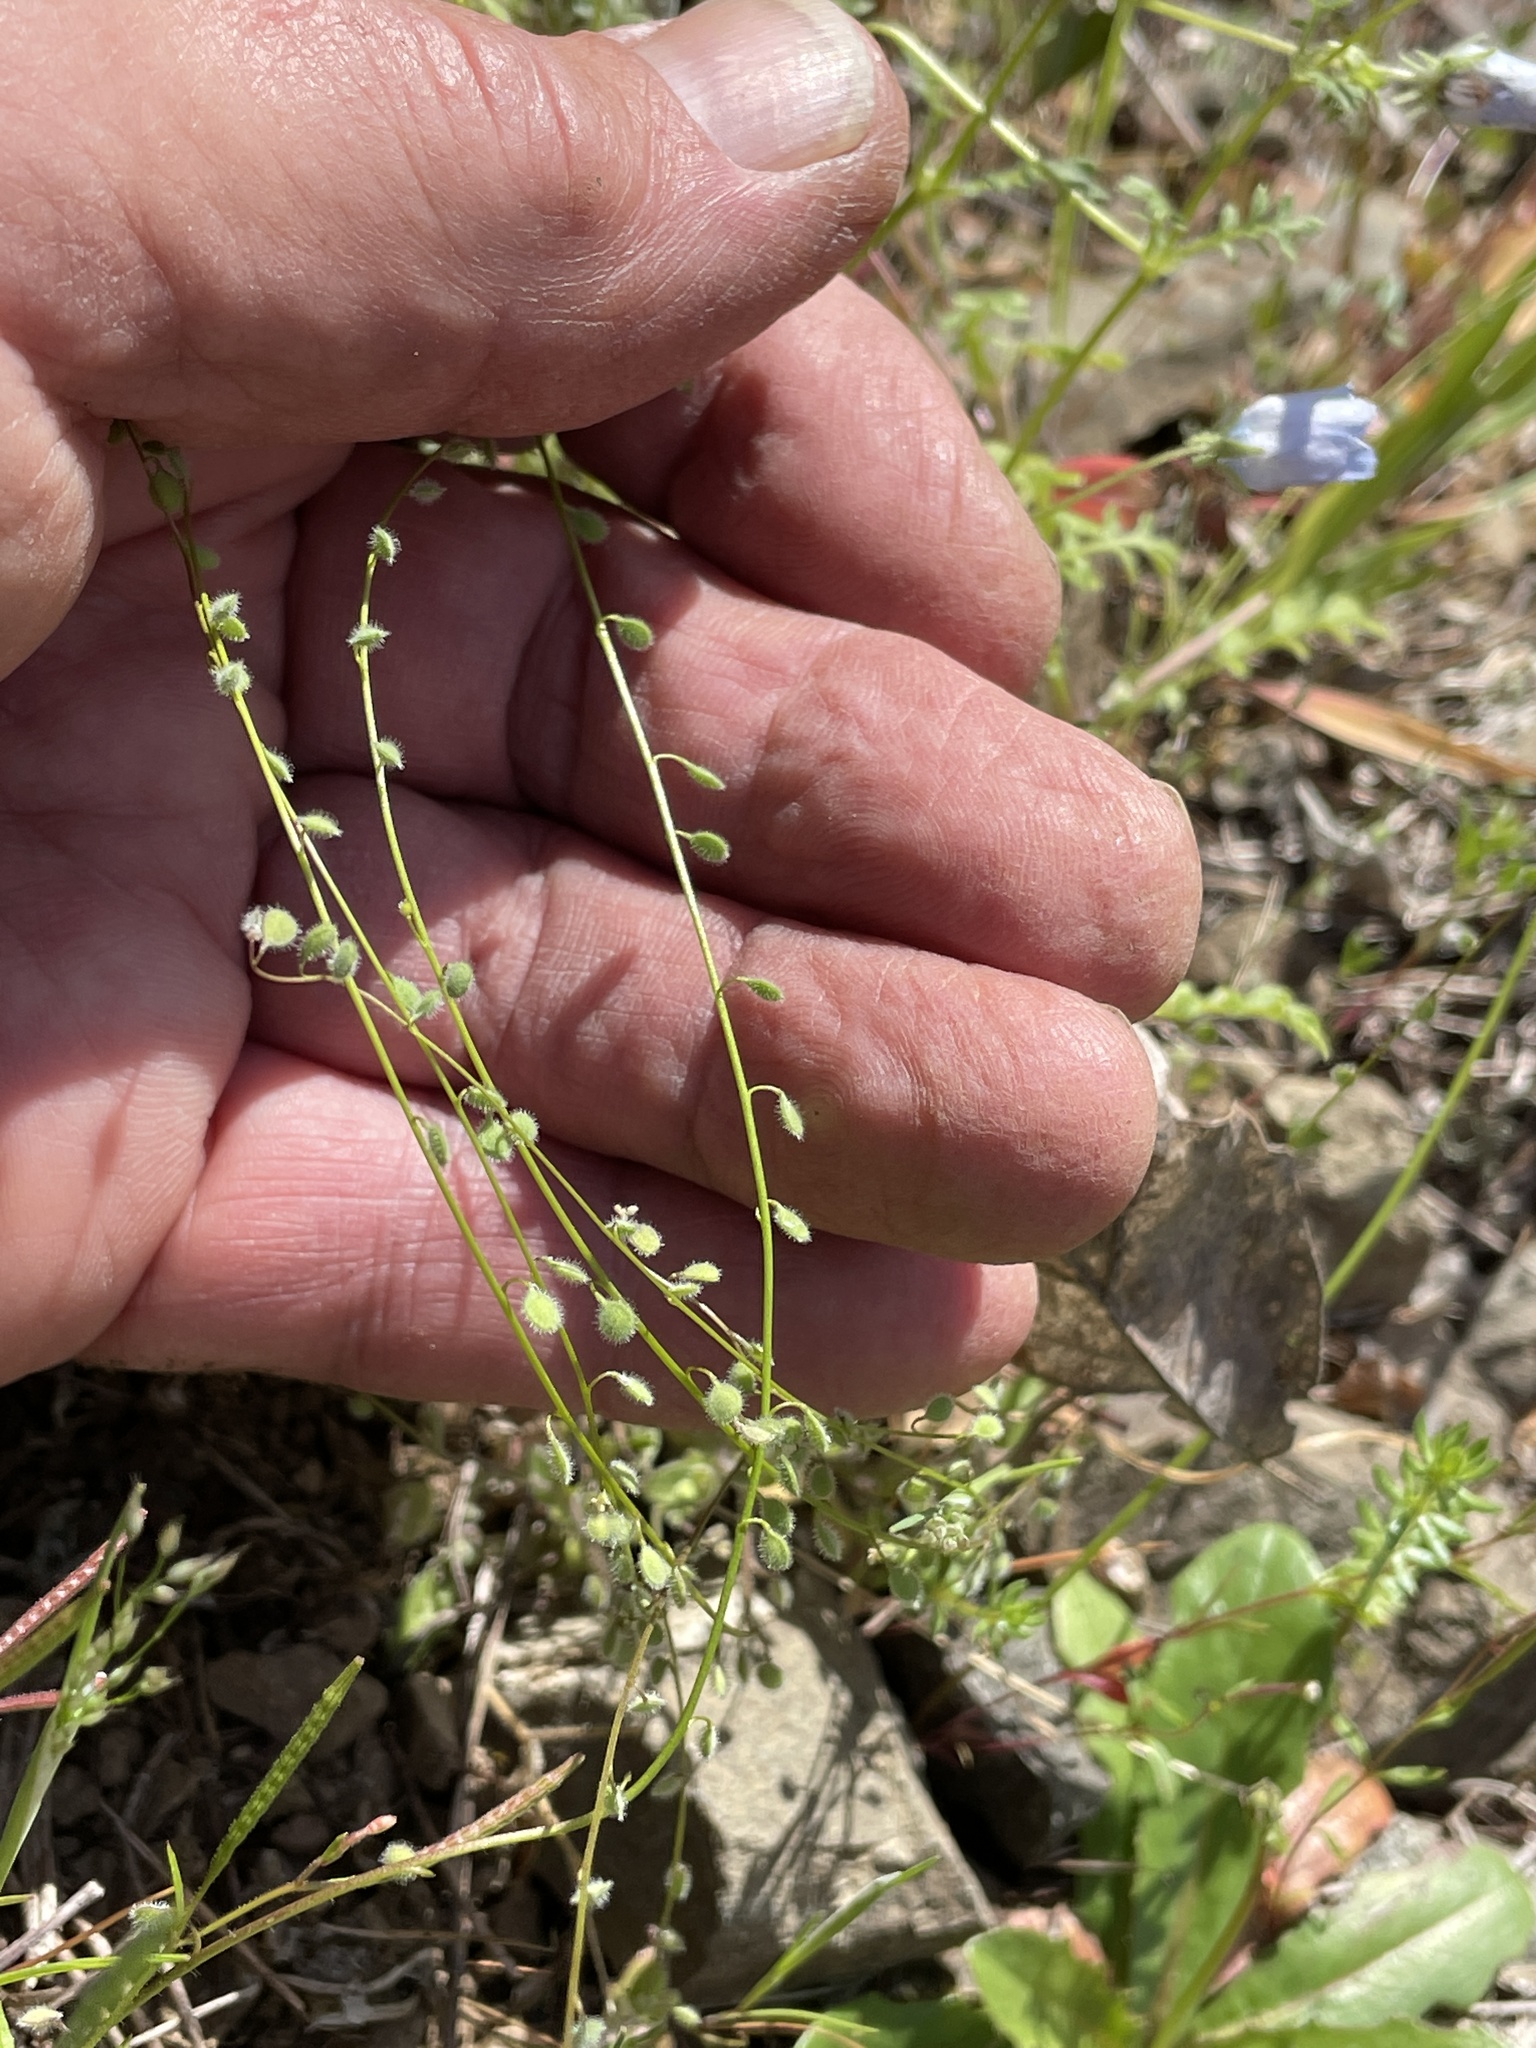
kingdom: Plantae
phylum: Tracheophyta
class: Magnoliopsida
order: Brassicales
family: Brassicaceae
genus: Athysanus
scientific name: Athysanus pusillus
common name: Common sandweed
